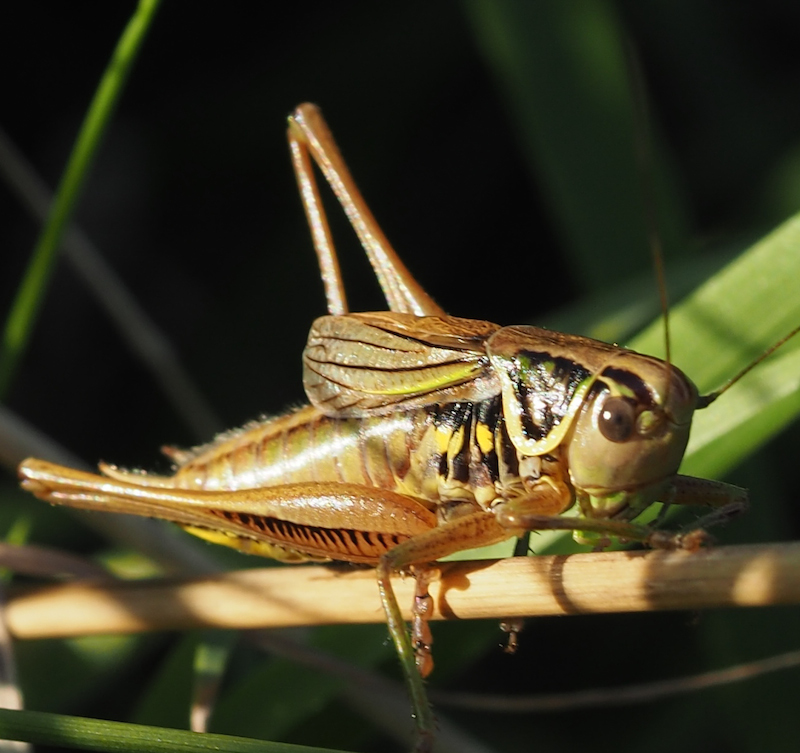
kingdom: Animalia
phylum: Arthropoda
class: Insecta
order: Orthoptera
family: Tettigoniidae
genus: Roeseliana
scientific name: Roeseliana roeselii
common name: Roesel's bush cricket
